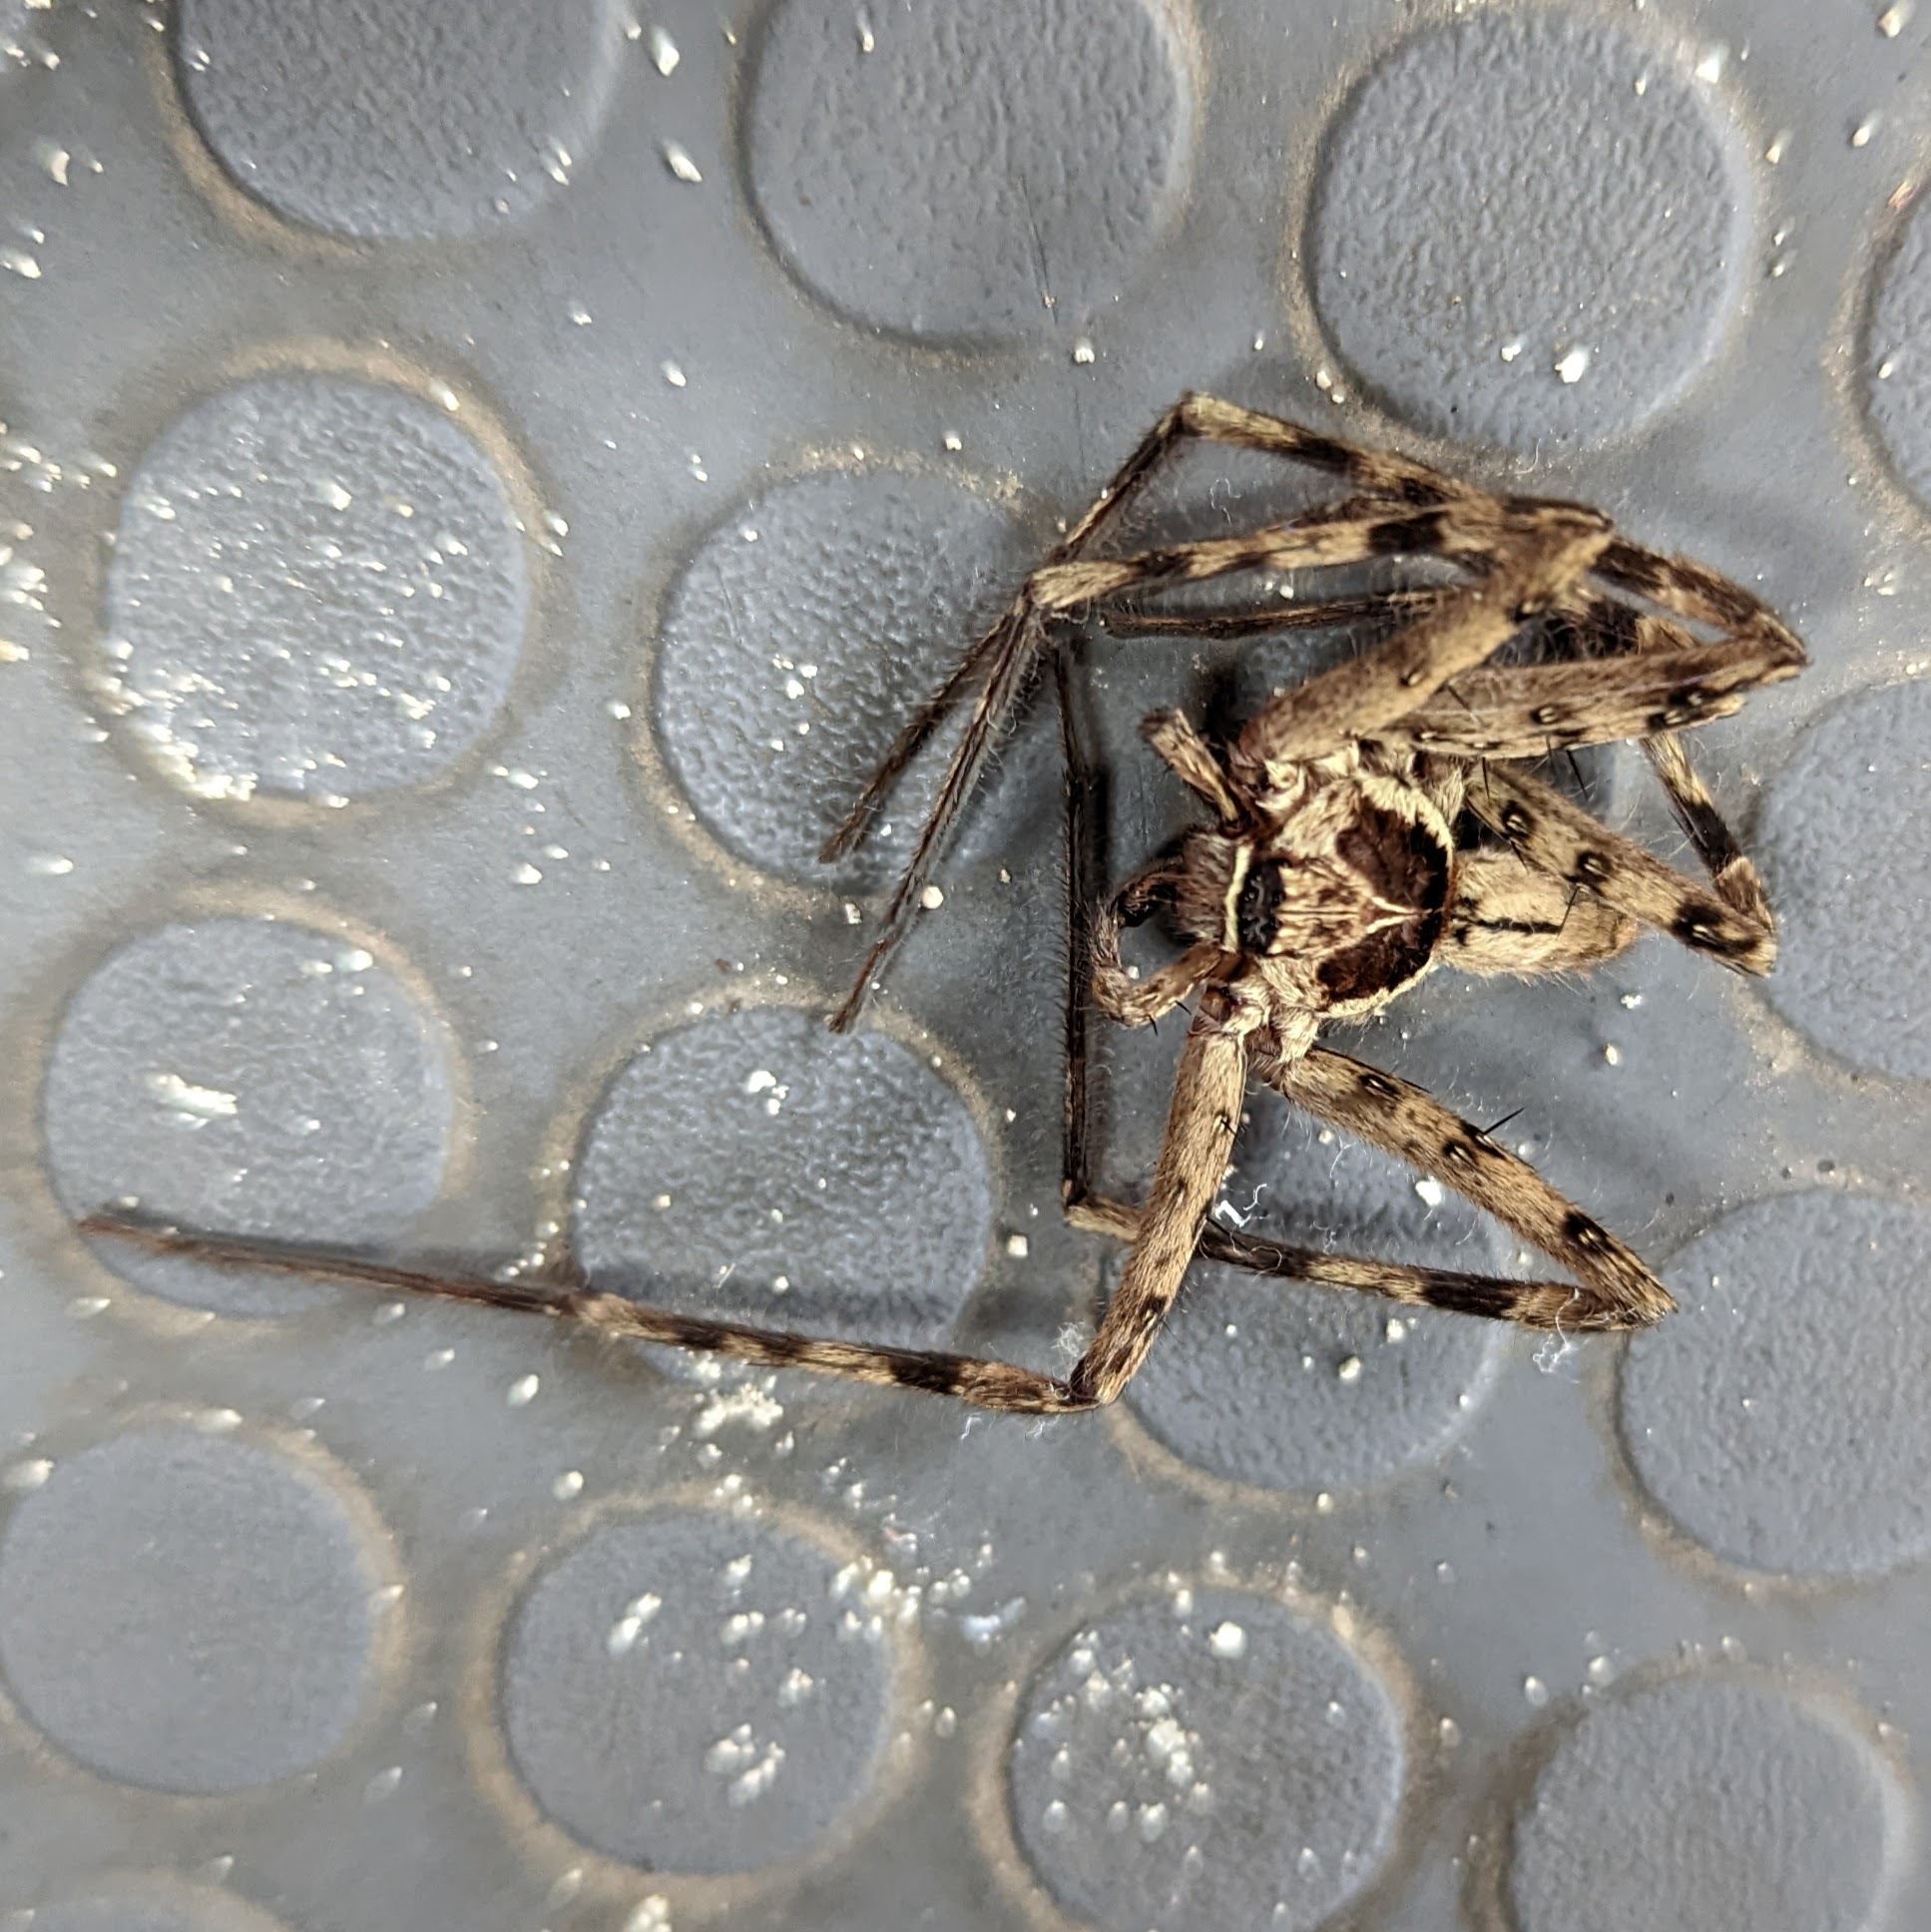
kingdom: Animalia
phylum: Arthropoda
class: Arachnida
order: Araneae
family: Sparassidae
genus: Heteropoda
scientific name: Heteropoda venatoria
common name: Huntsman spider
